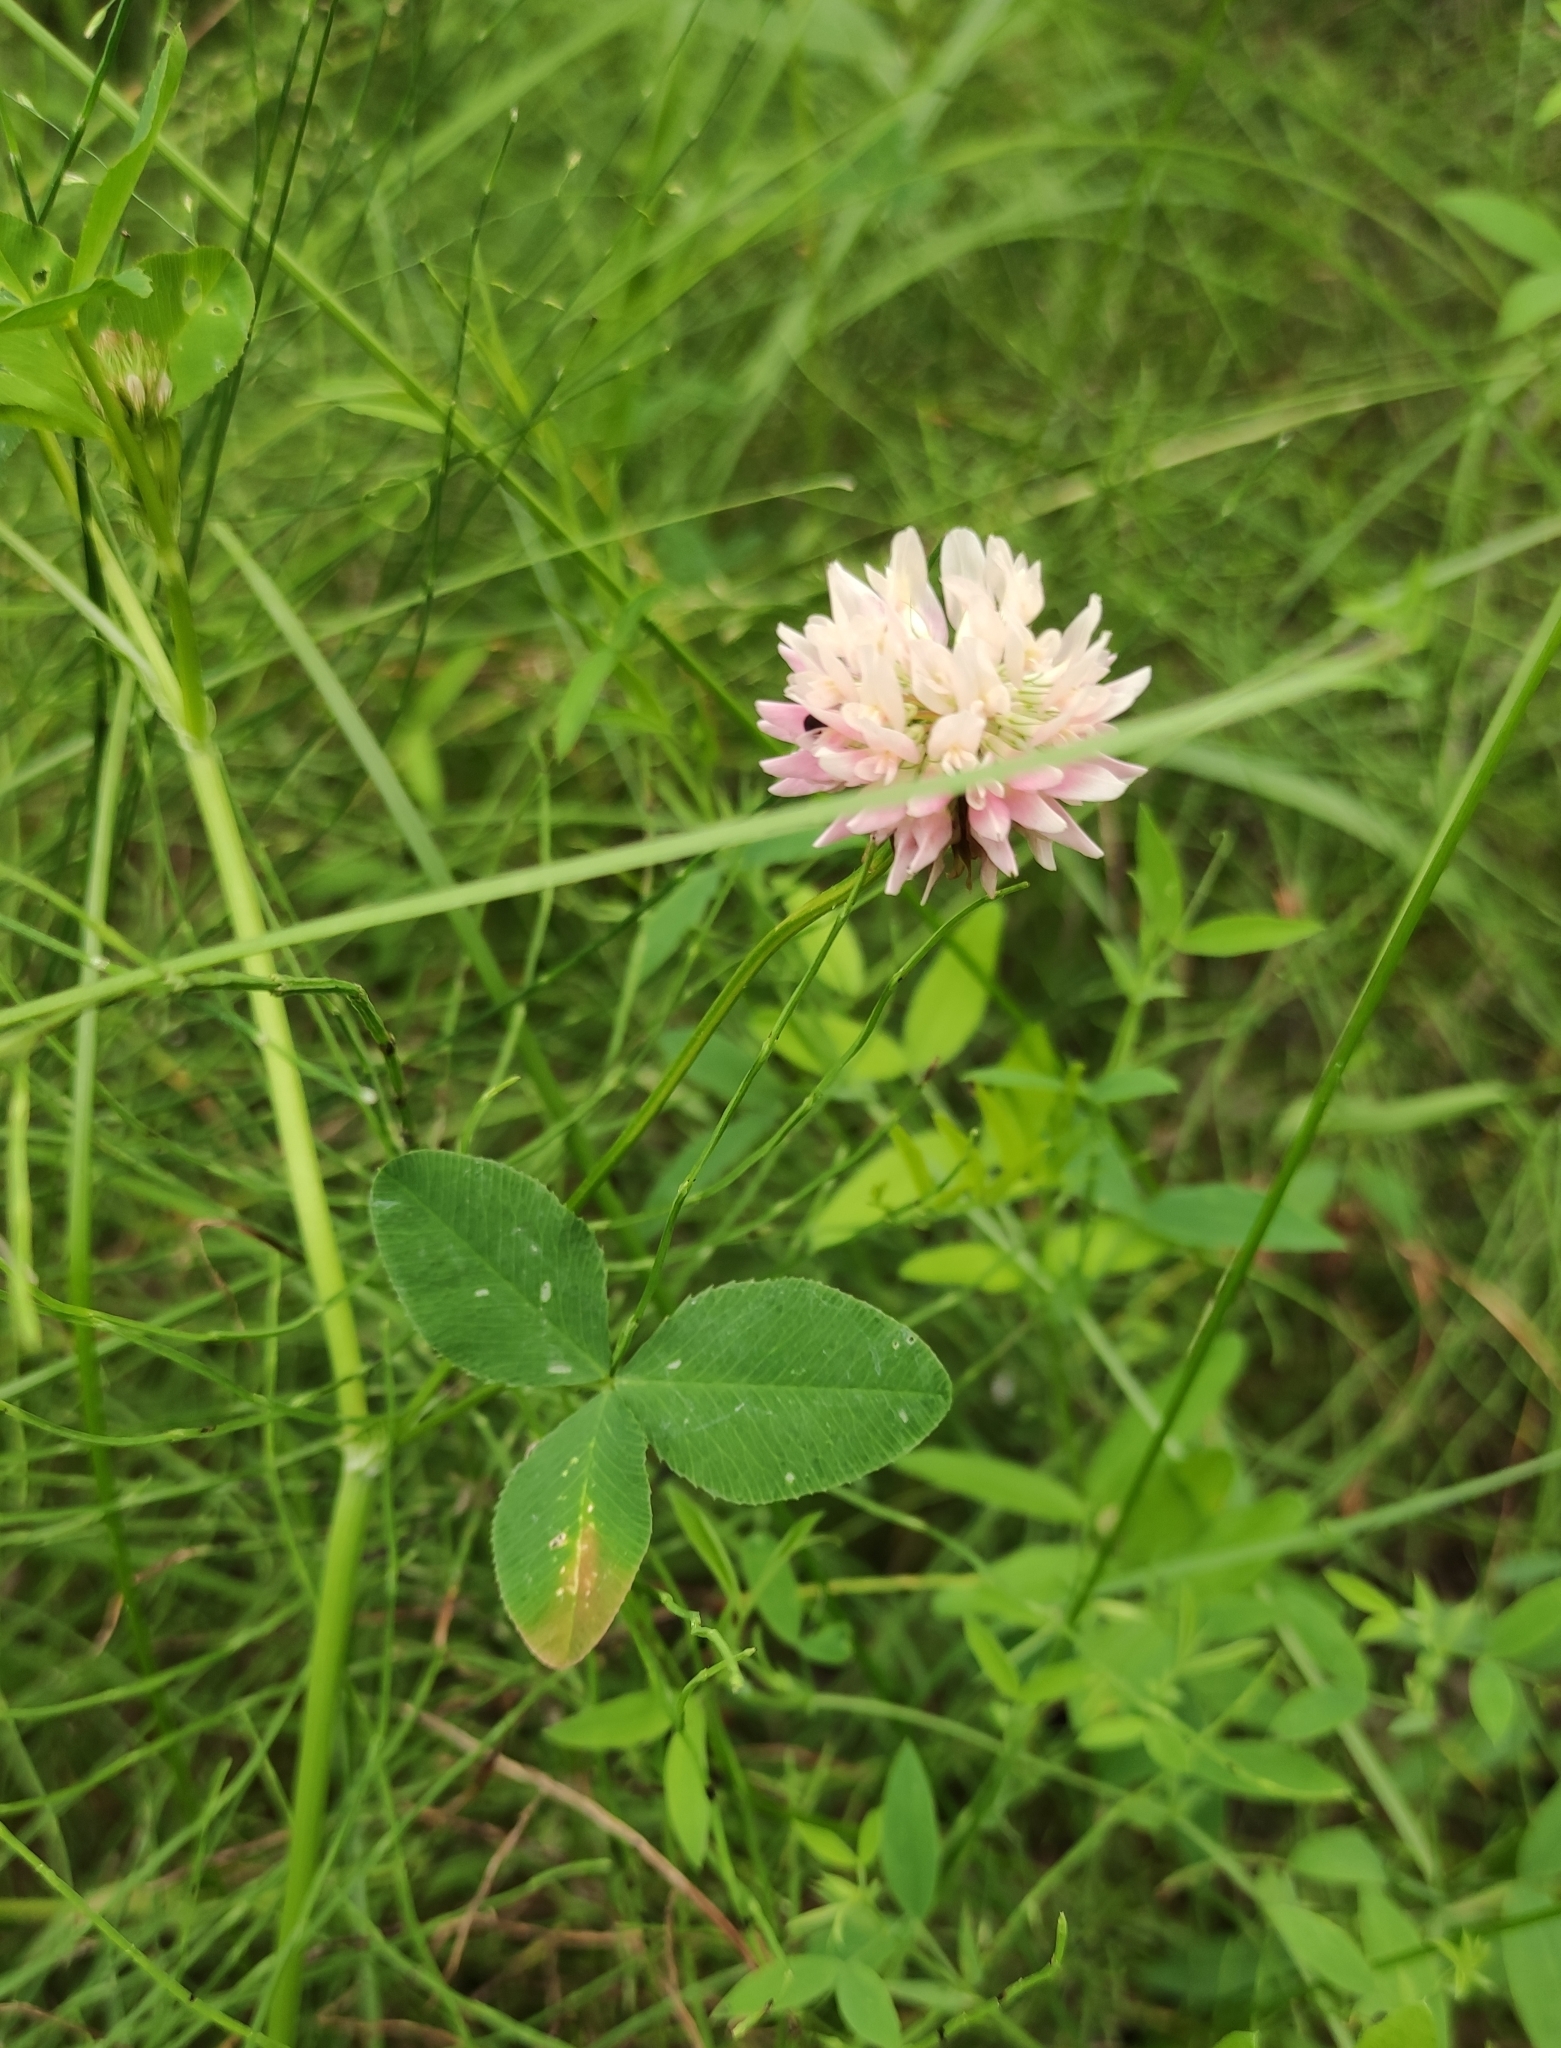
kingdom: Plantae
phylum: Tracheophyta
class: Magnoliopsida
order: Fabales
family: Fabaceae
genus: Trifolium
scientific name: Trifolium hybridum
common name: Alsike clover
